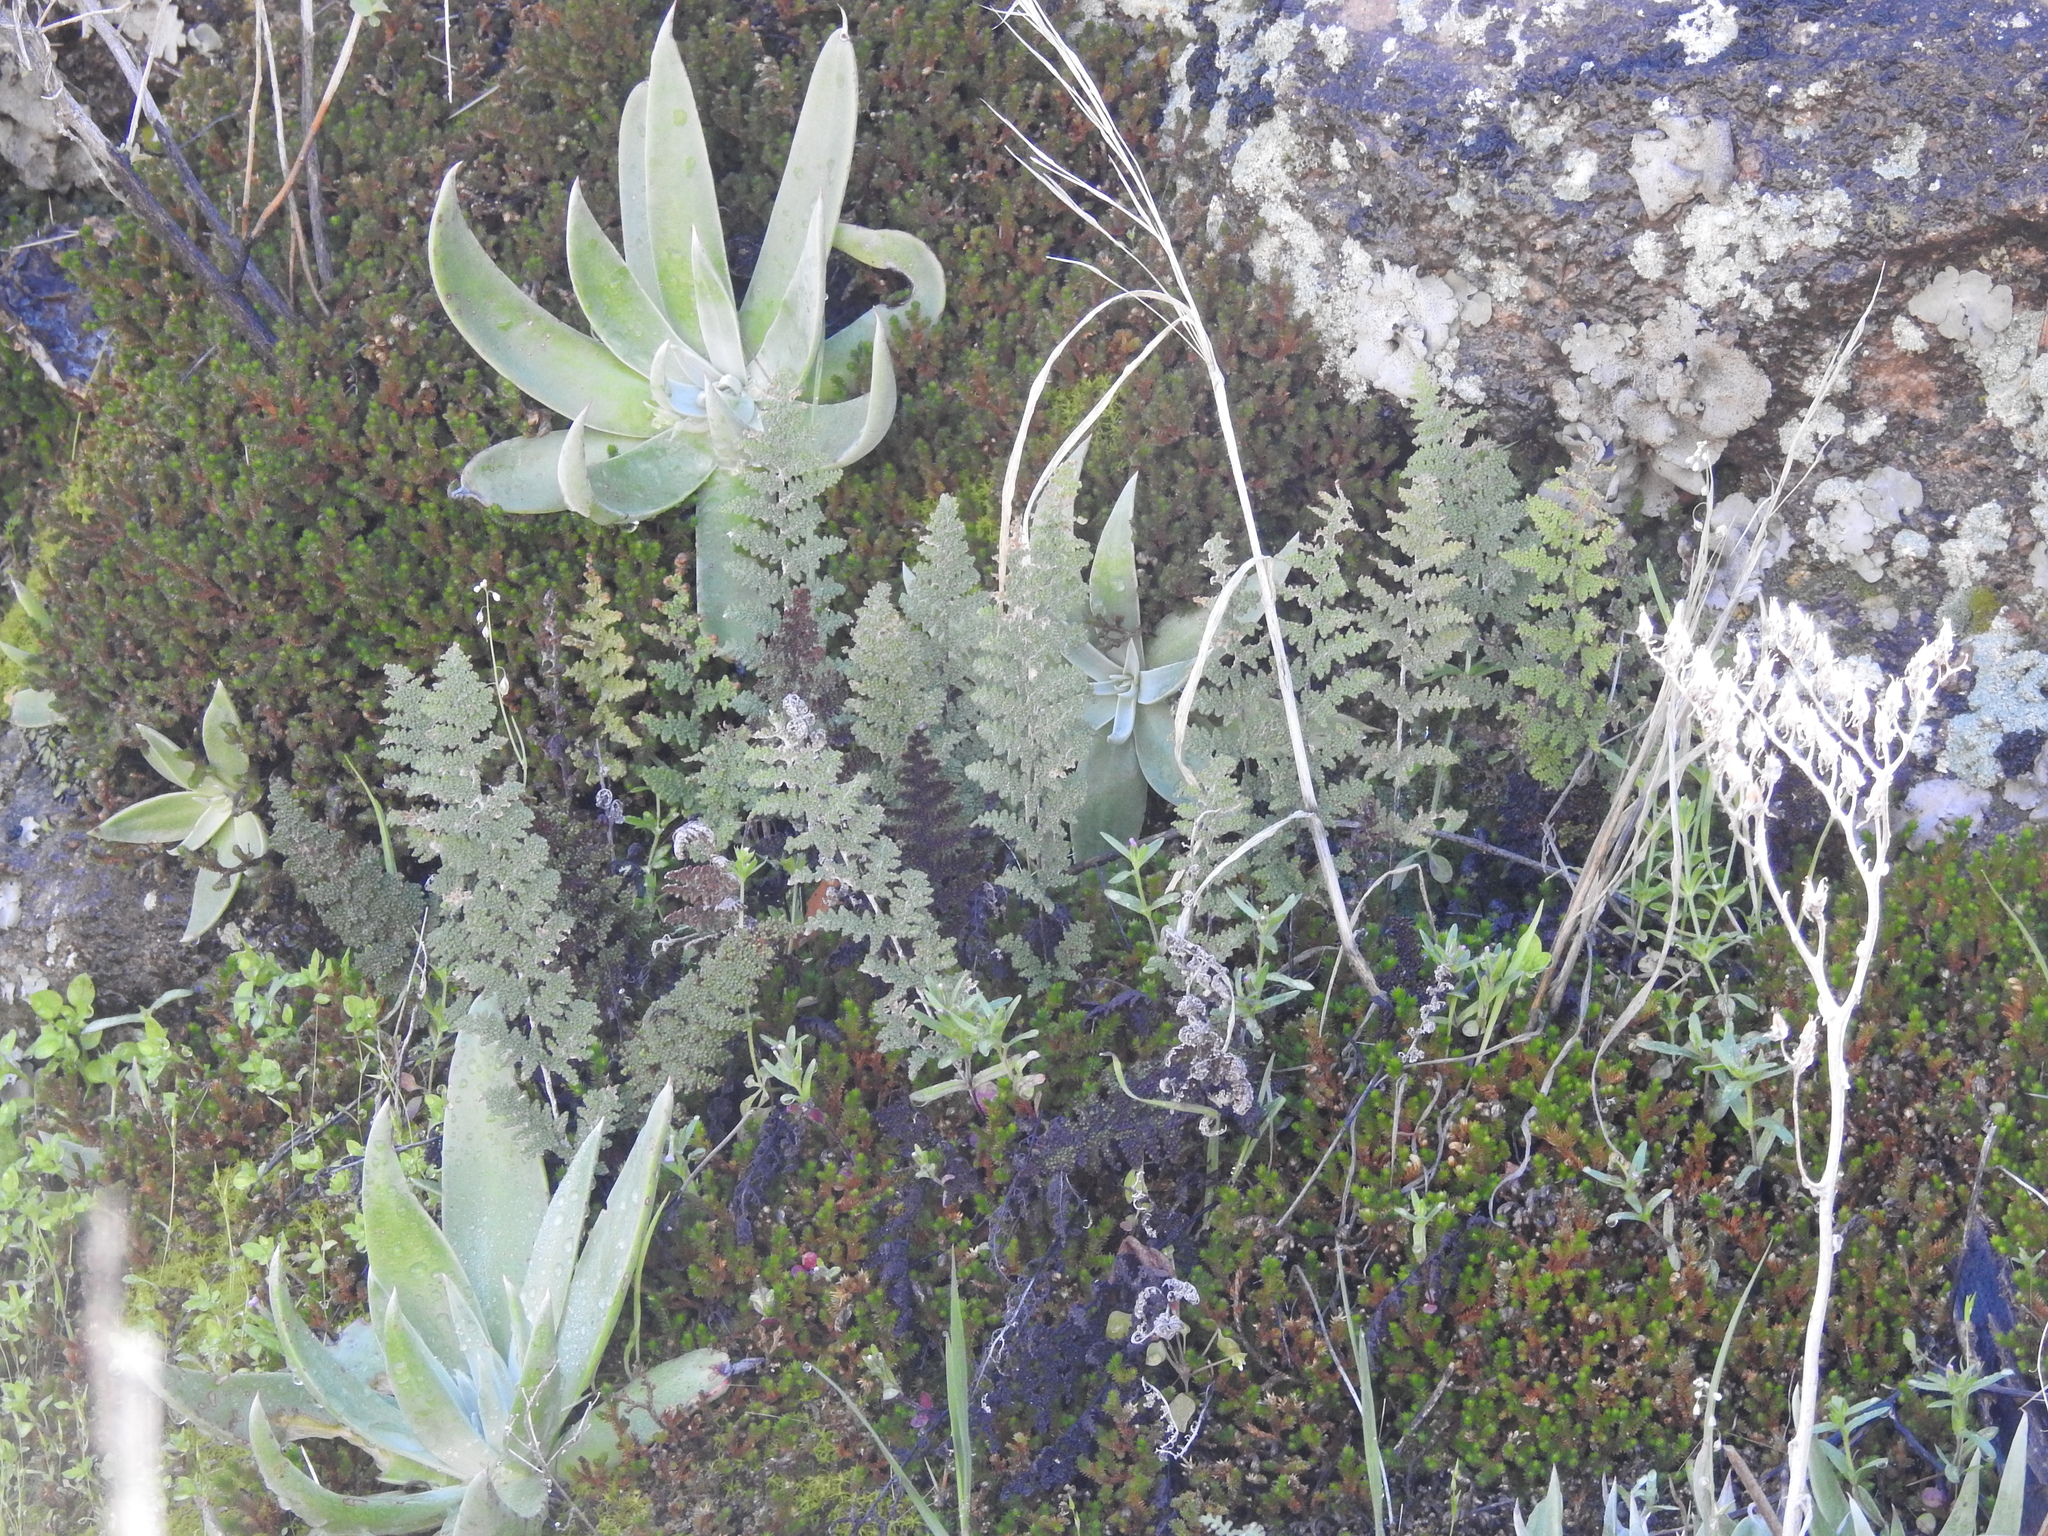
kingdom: Plantae
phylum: Tracheophyta
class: Polypodiopsida
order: Polypodiales
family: Pteridaceae
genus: Myriopteris
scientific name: Myriopteris lindheimeri
